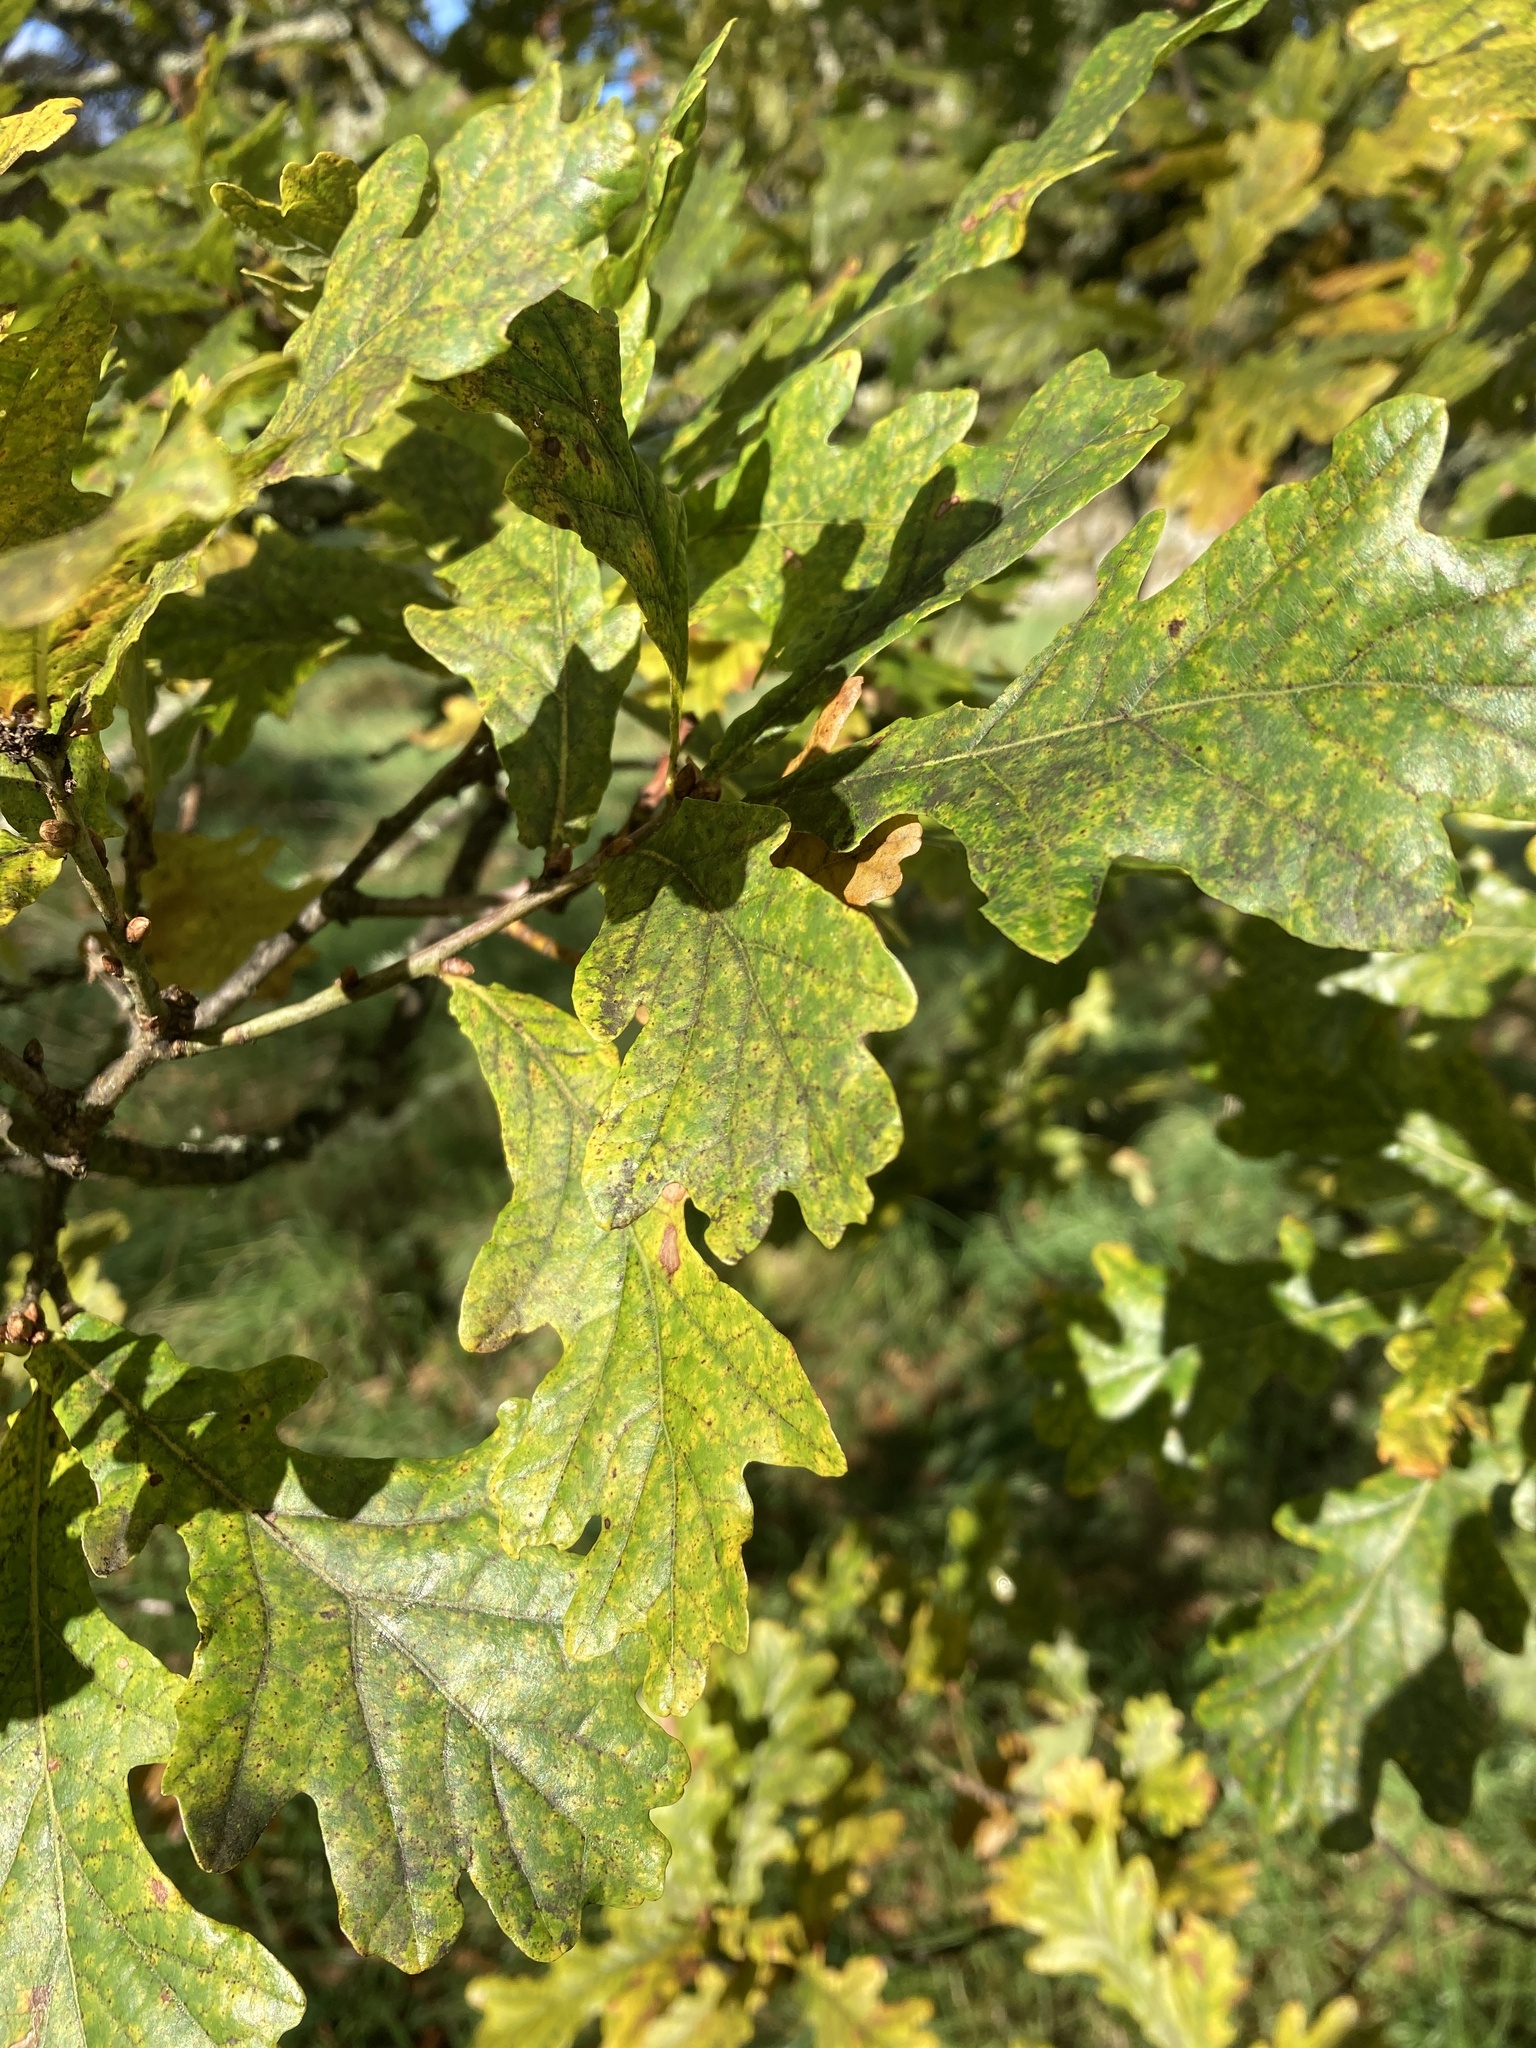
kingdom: Plantae
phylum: Tracheophyta
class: Magnoliopsida
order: Fagales
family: Fagaceae
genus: Quercus
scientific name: Quercus robur
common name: Pedunculate oak
